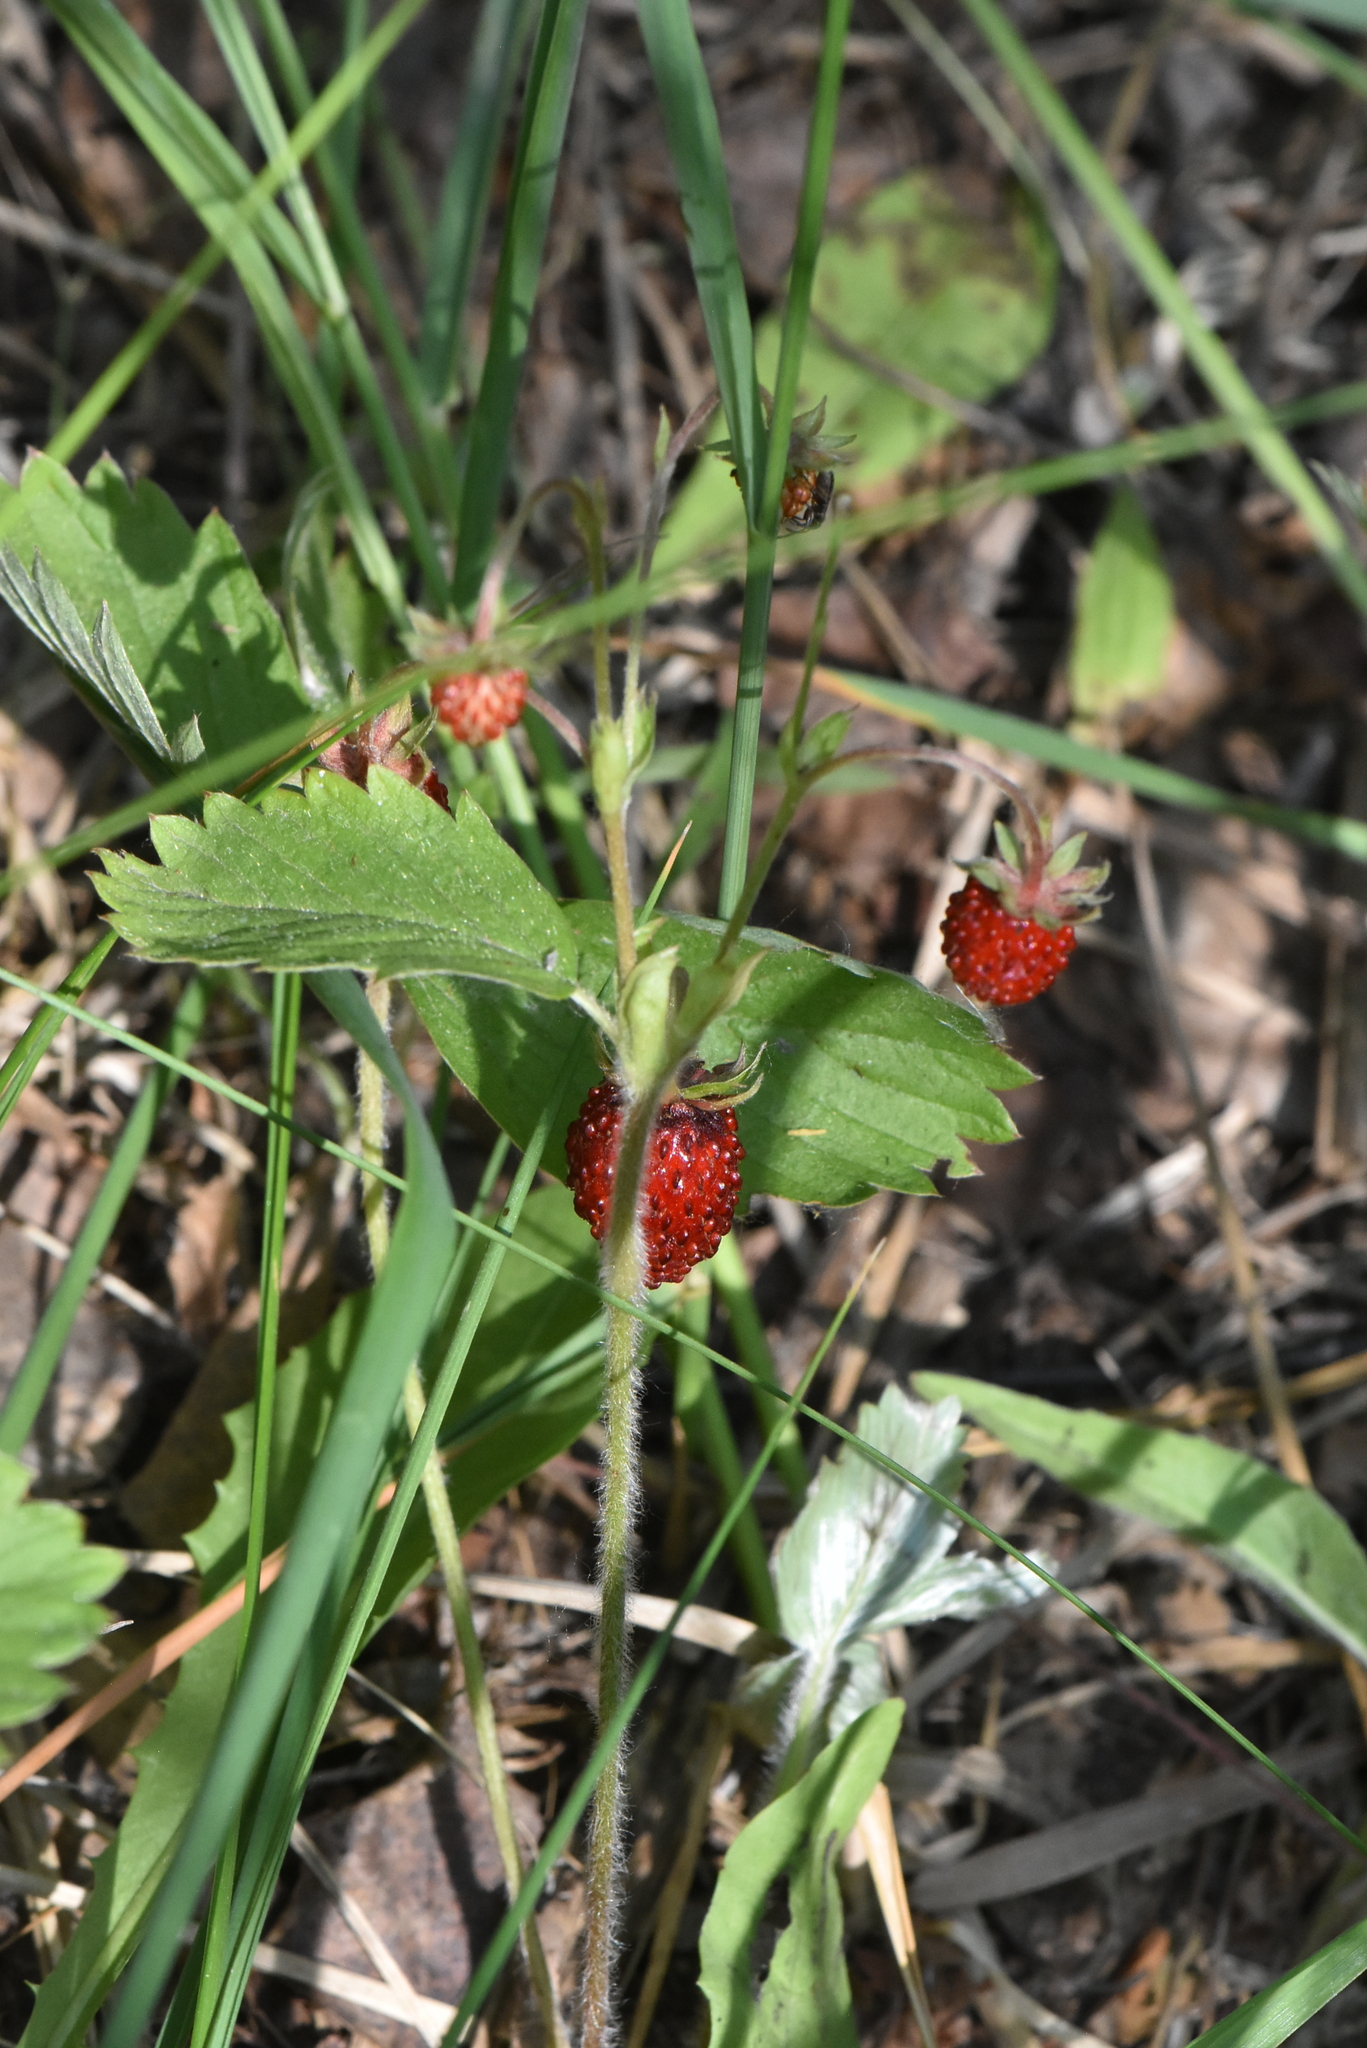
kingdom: Plantae
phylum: Tracheophyta
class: Magnoliopsida
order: Rosales
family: Rosaceae
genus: Fragaria
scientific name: Fragaria vesca
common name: Wild strawberry
